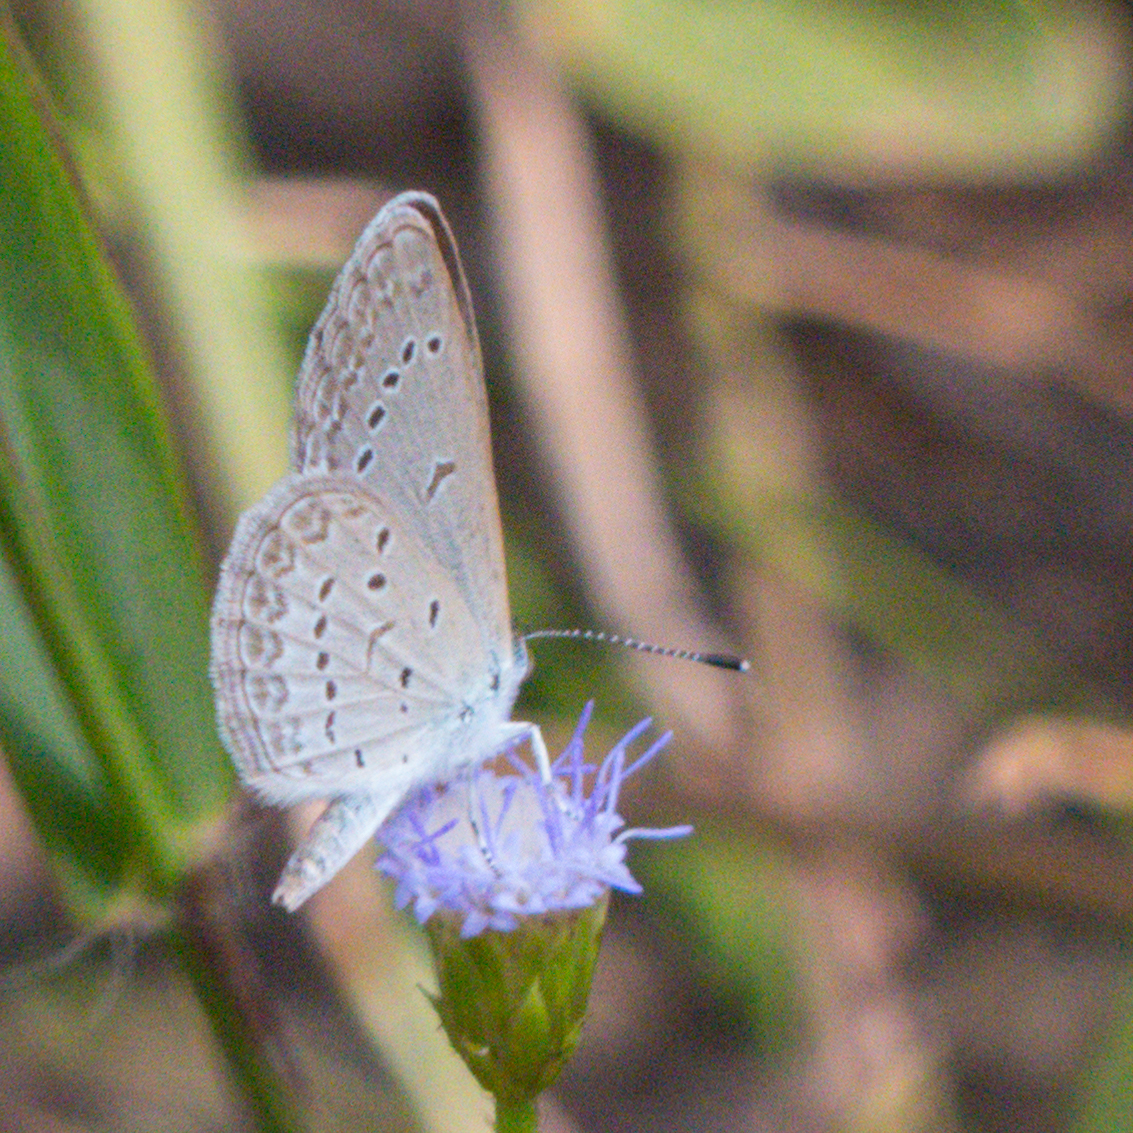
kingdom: Animalia
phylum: Arthropoda
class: Insecta
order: Lepidoptera
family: Lycaenidae
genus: Zizina
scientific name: Zizina otis
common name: Lesser grass blue
